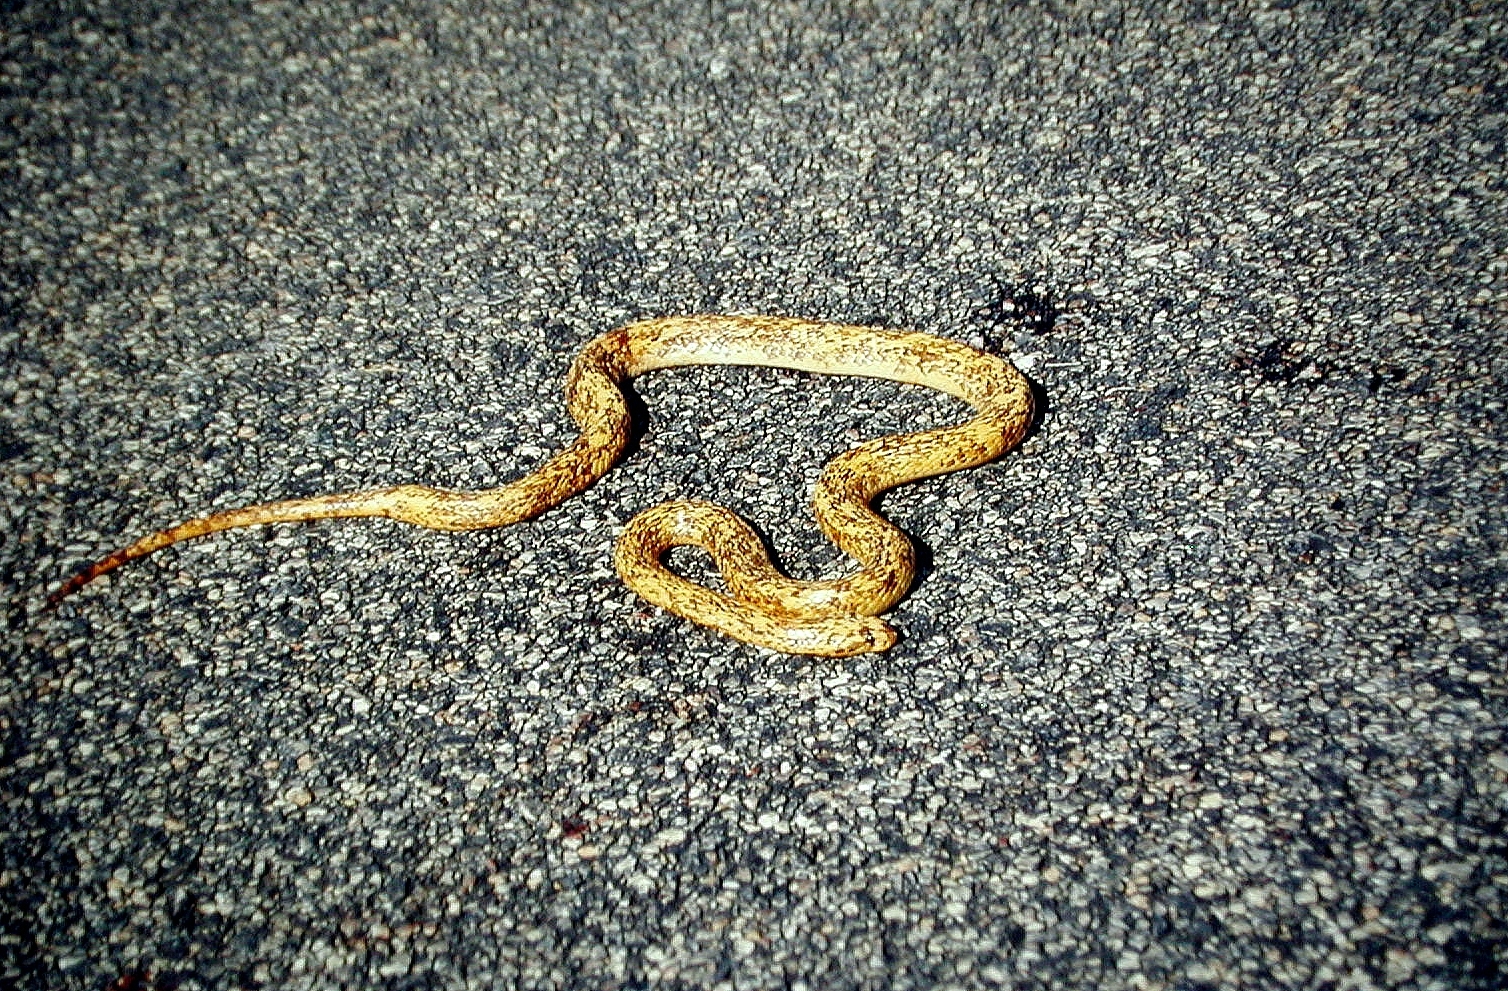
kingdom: Animalia
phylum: Chordata
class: Squamata
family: Elapidae
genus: Naja
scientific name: Naja nivea
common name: Cape cobra
